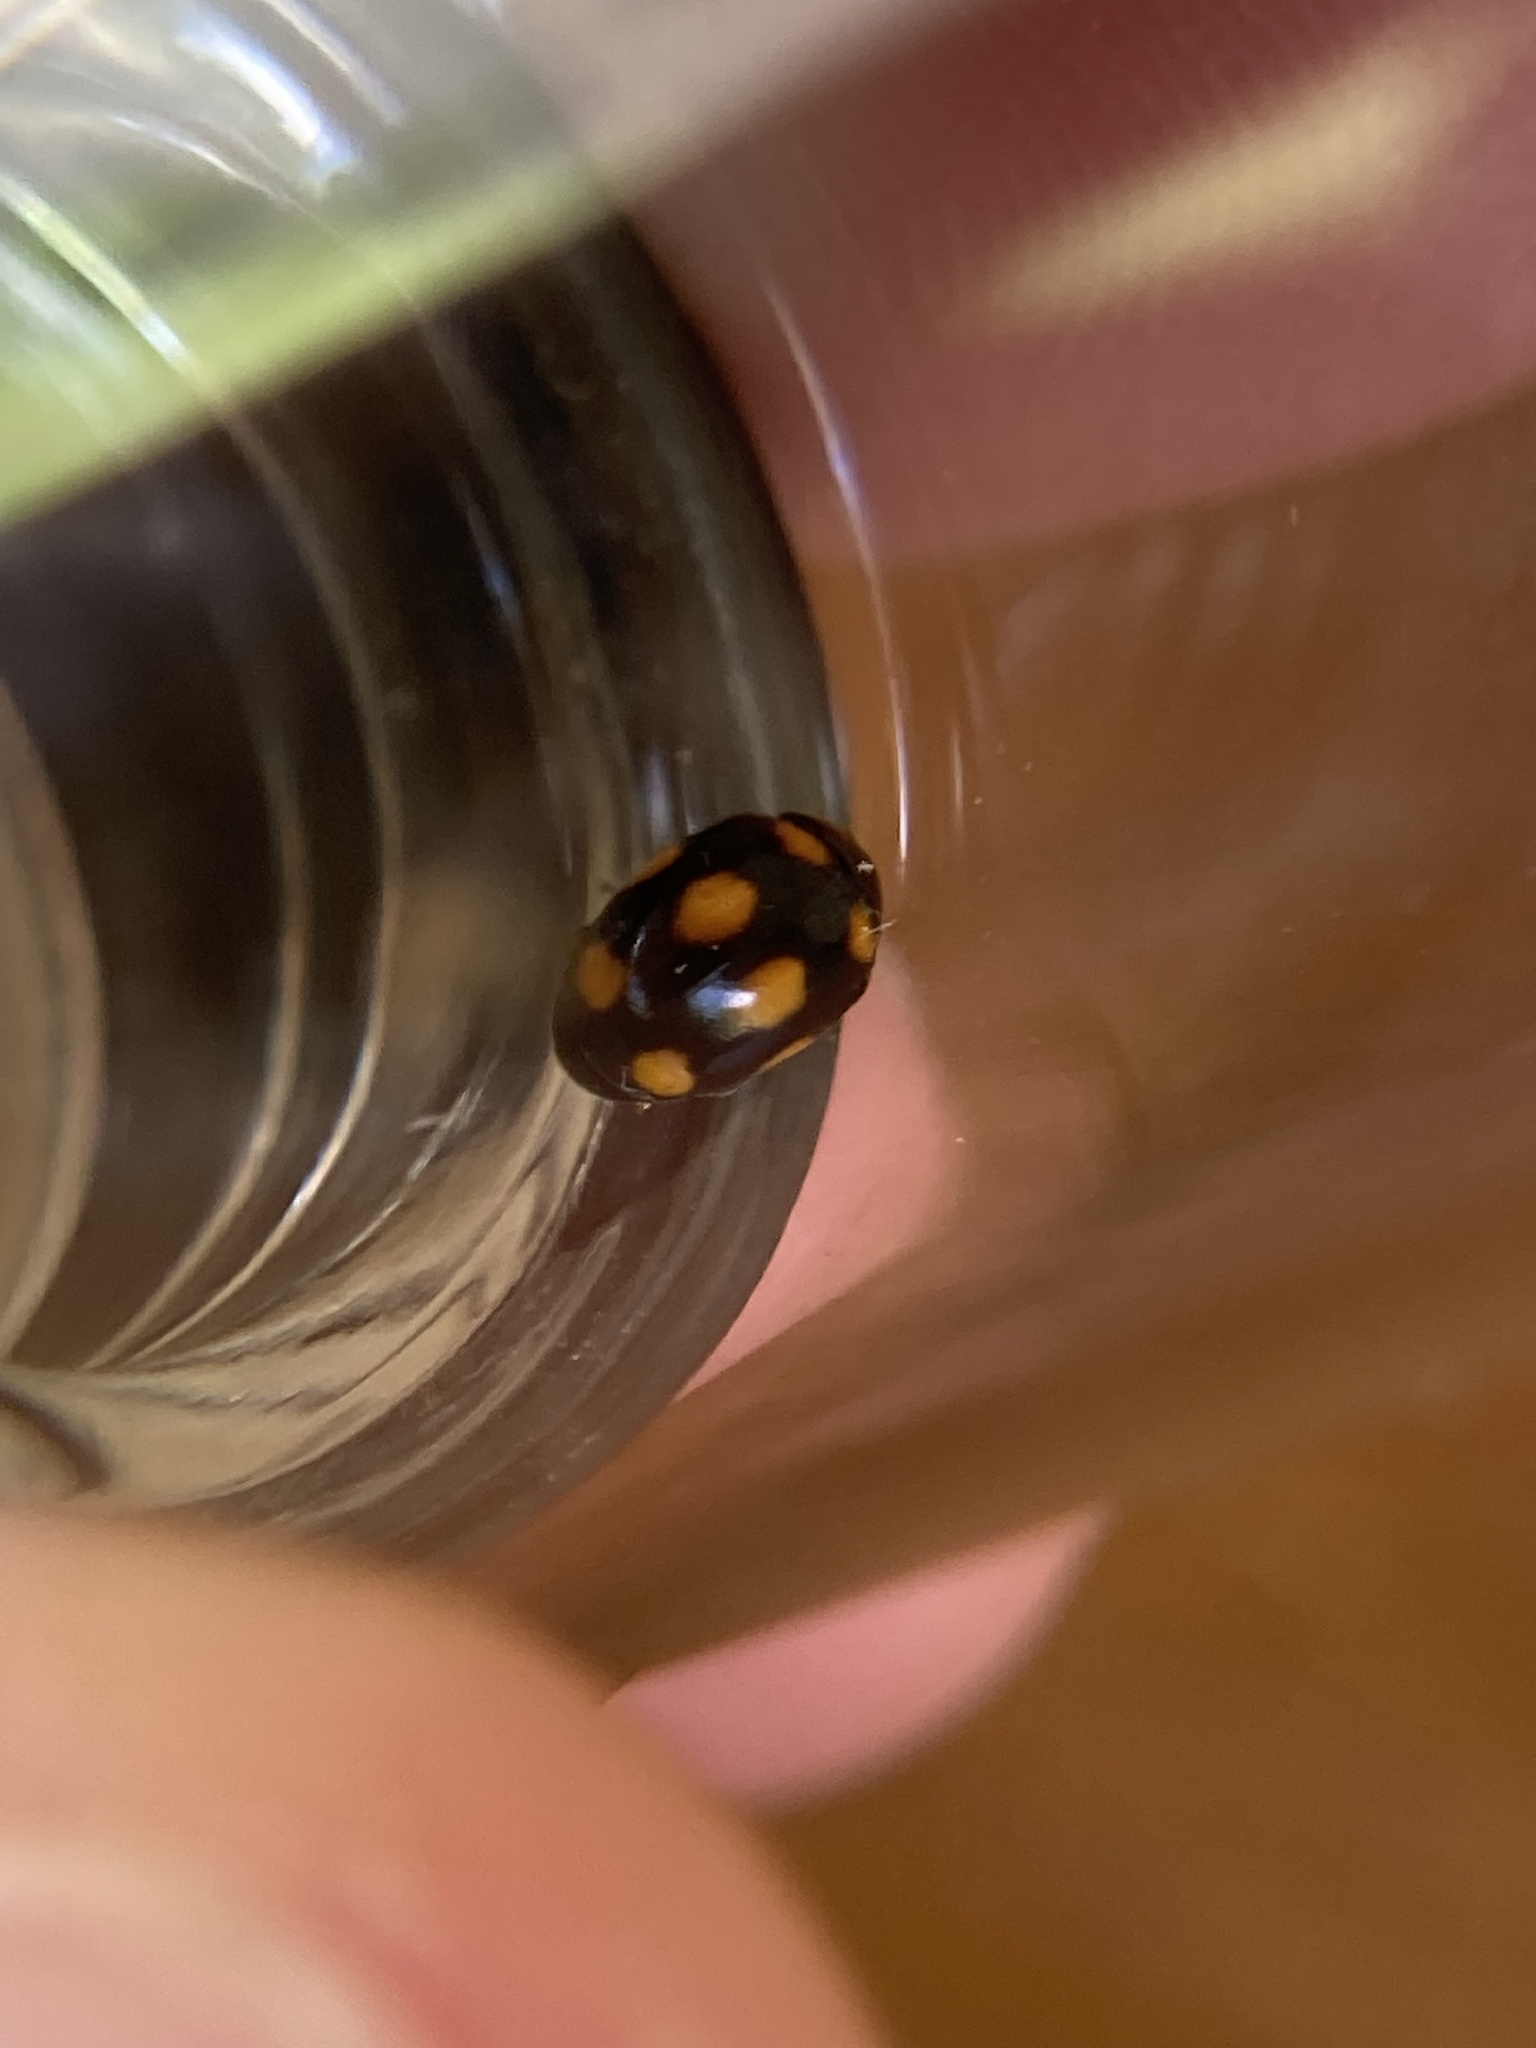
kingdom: Animalia
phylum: Arthropoda
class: Insecta
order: Coleoptera
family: Coccinellidae
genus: Brachiacantha
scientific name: Brachiacantha ursina
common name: Ursine spurleg lady beetle
